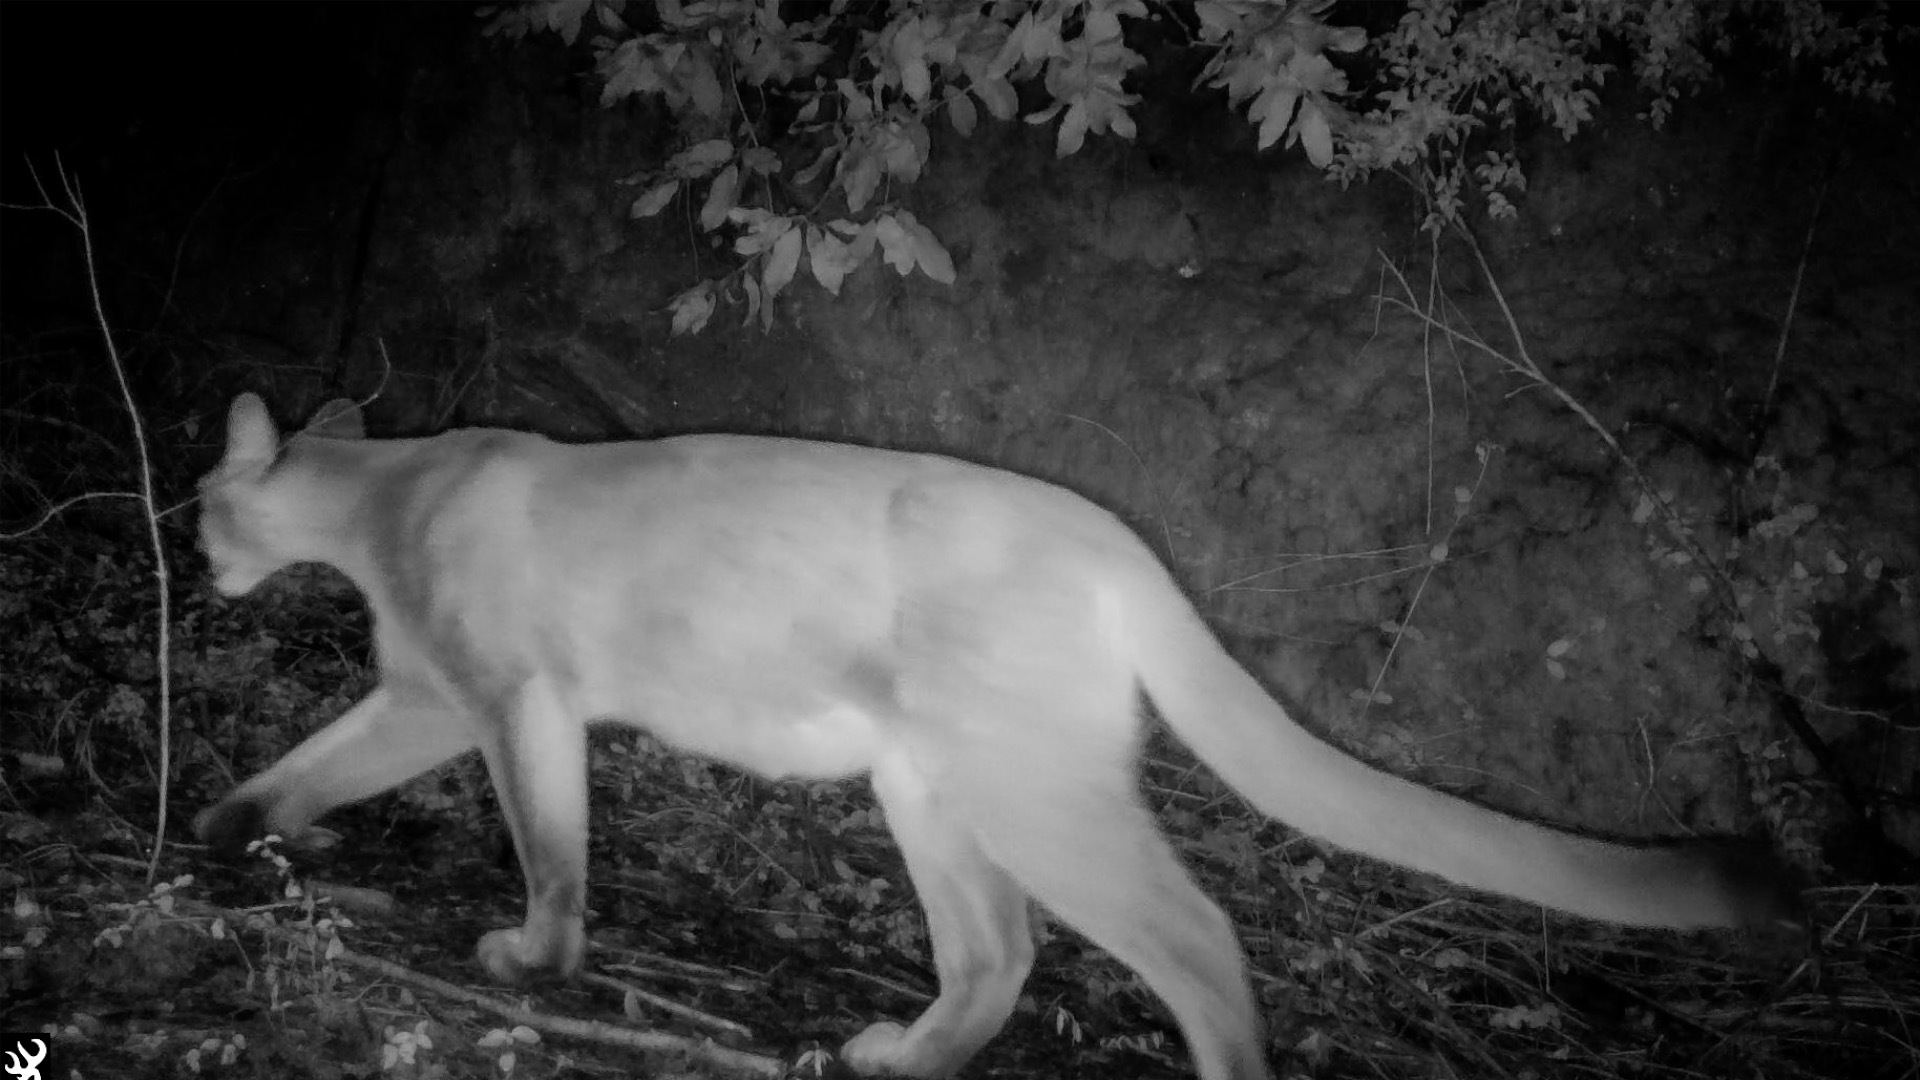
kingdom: Animalia
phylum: Chordata
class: Mammalia
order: Carnivora
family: Felidae
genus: Puma
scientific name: Puma concolor
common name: Puma
